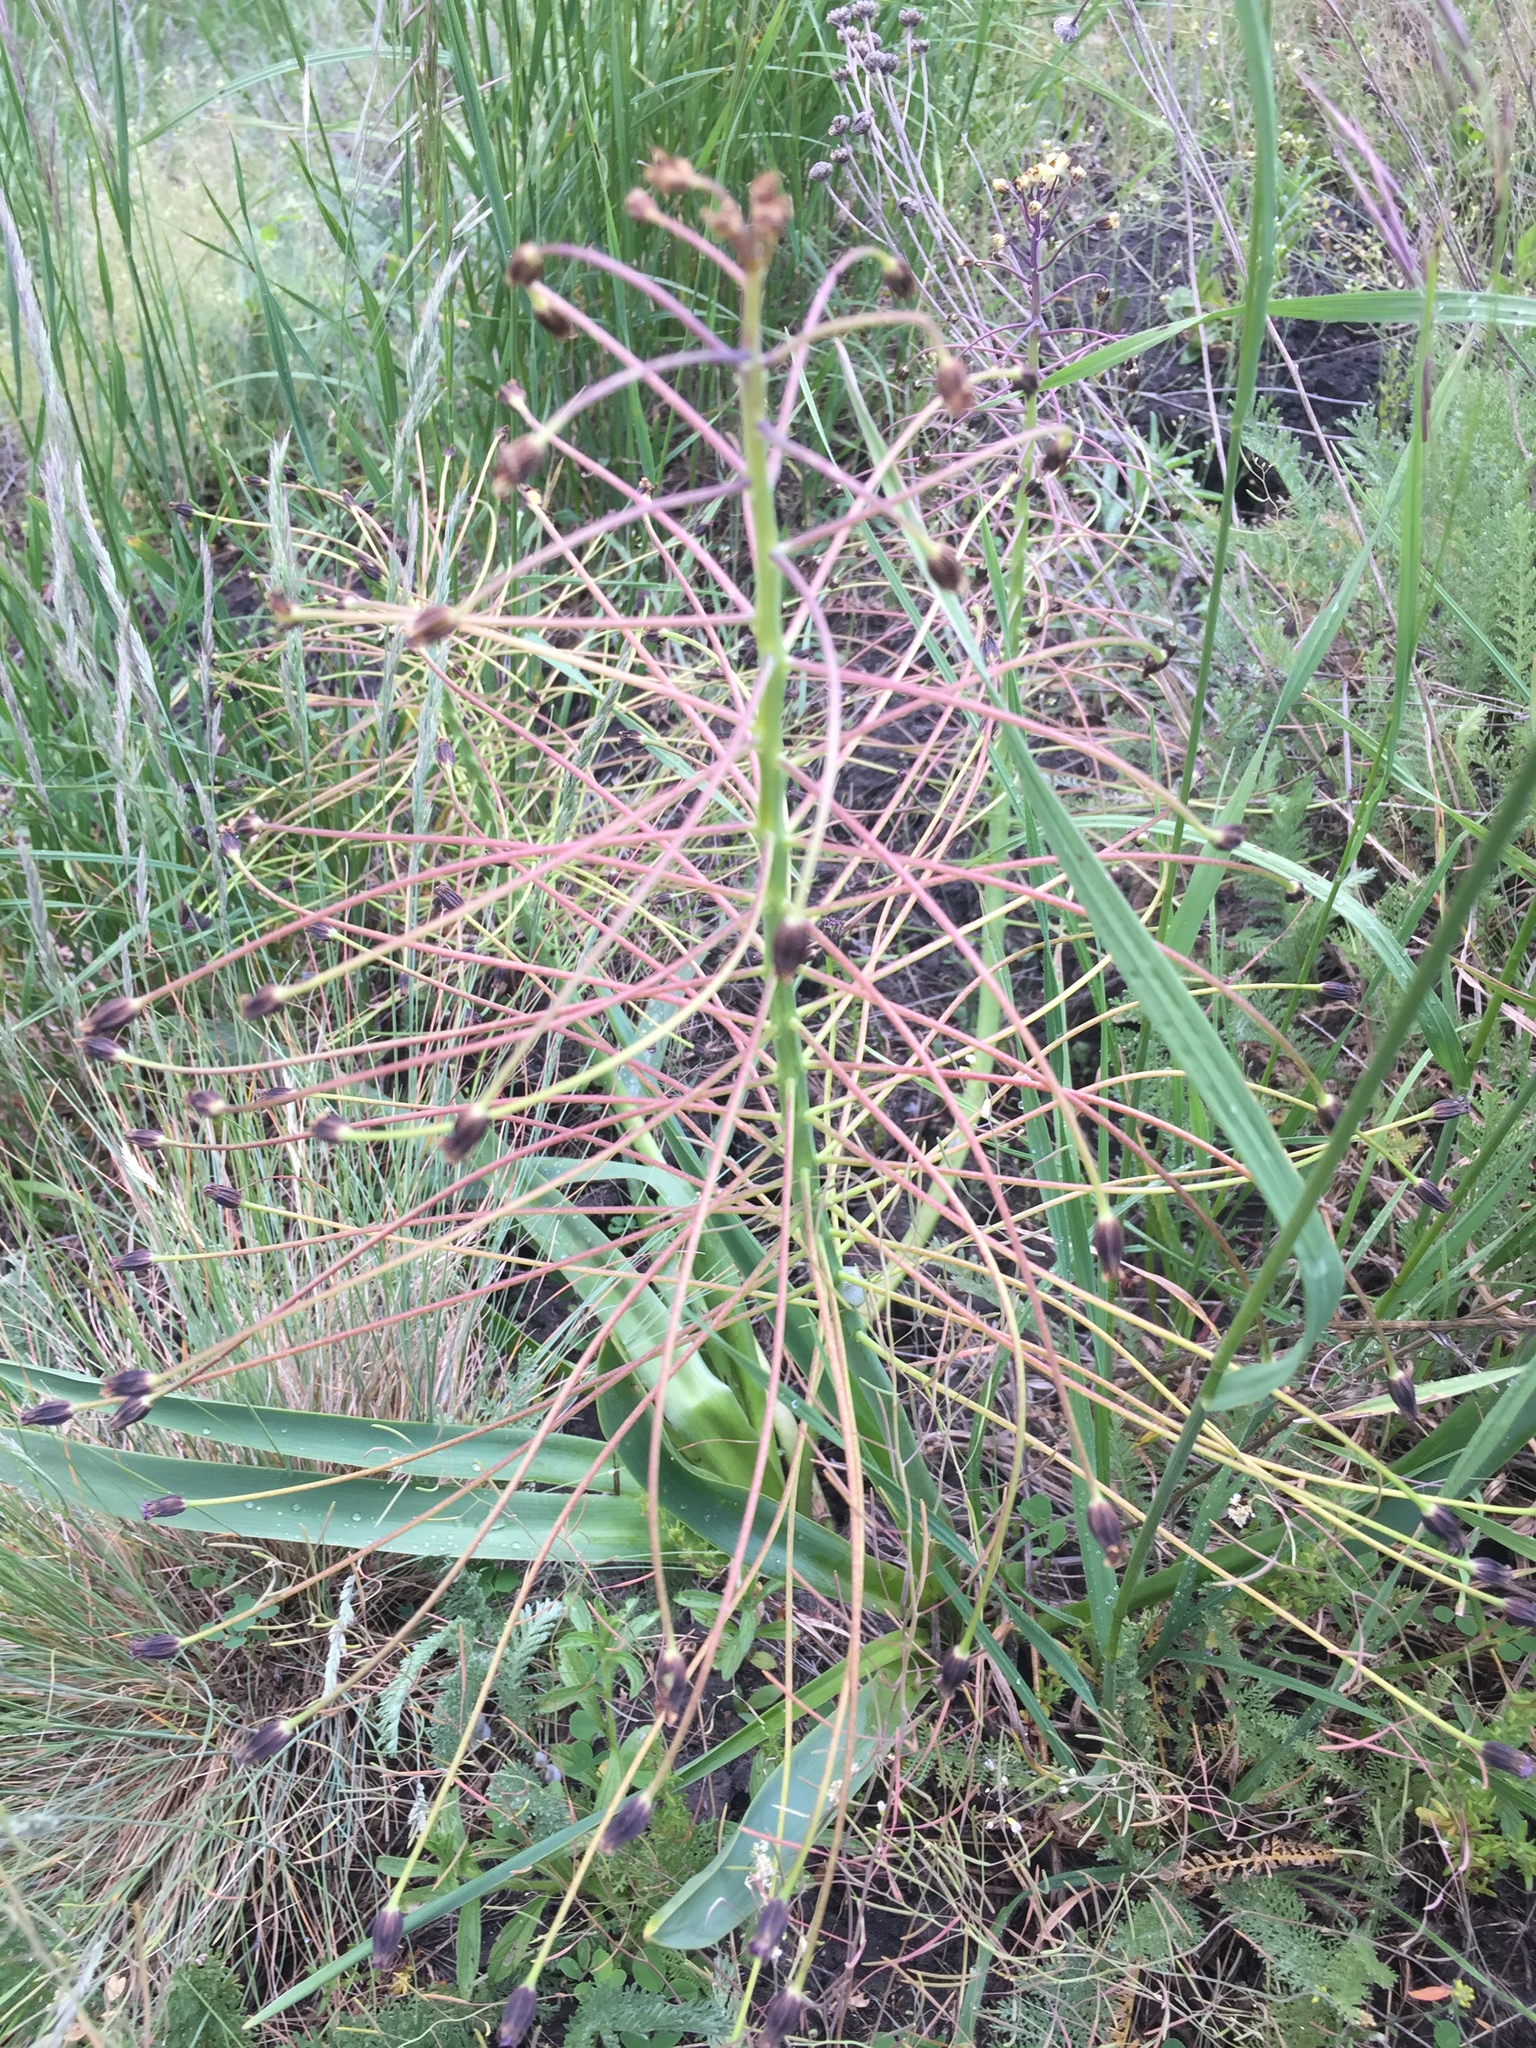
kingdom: Plantae
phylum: Tracheophyta
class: Liliopsida
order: Asparagales
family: Asparagaceae
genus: Bellevalia
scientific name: Bellevalia speciosa
